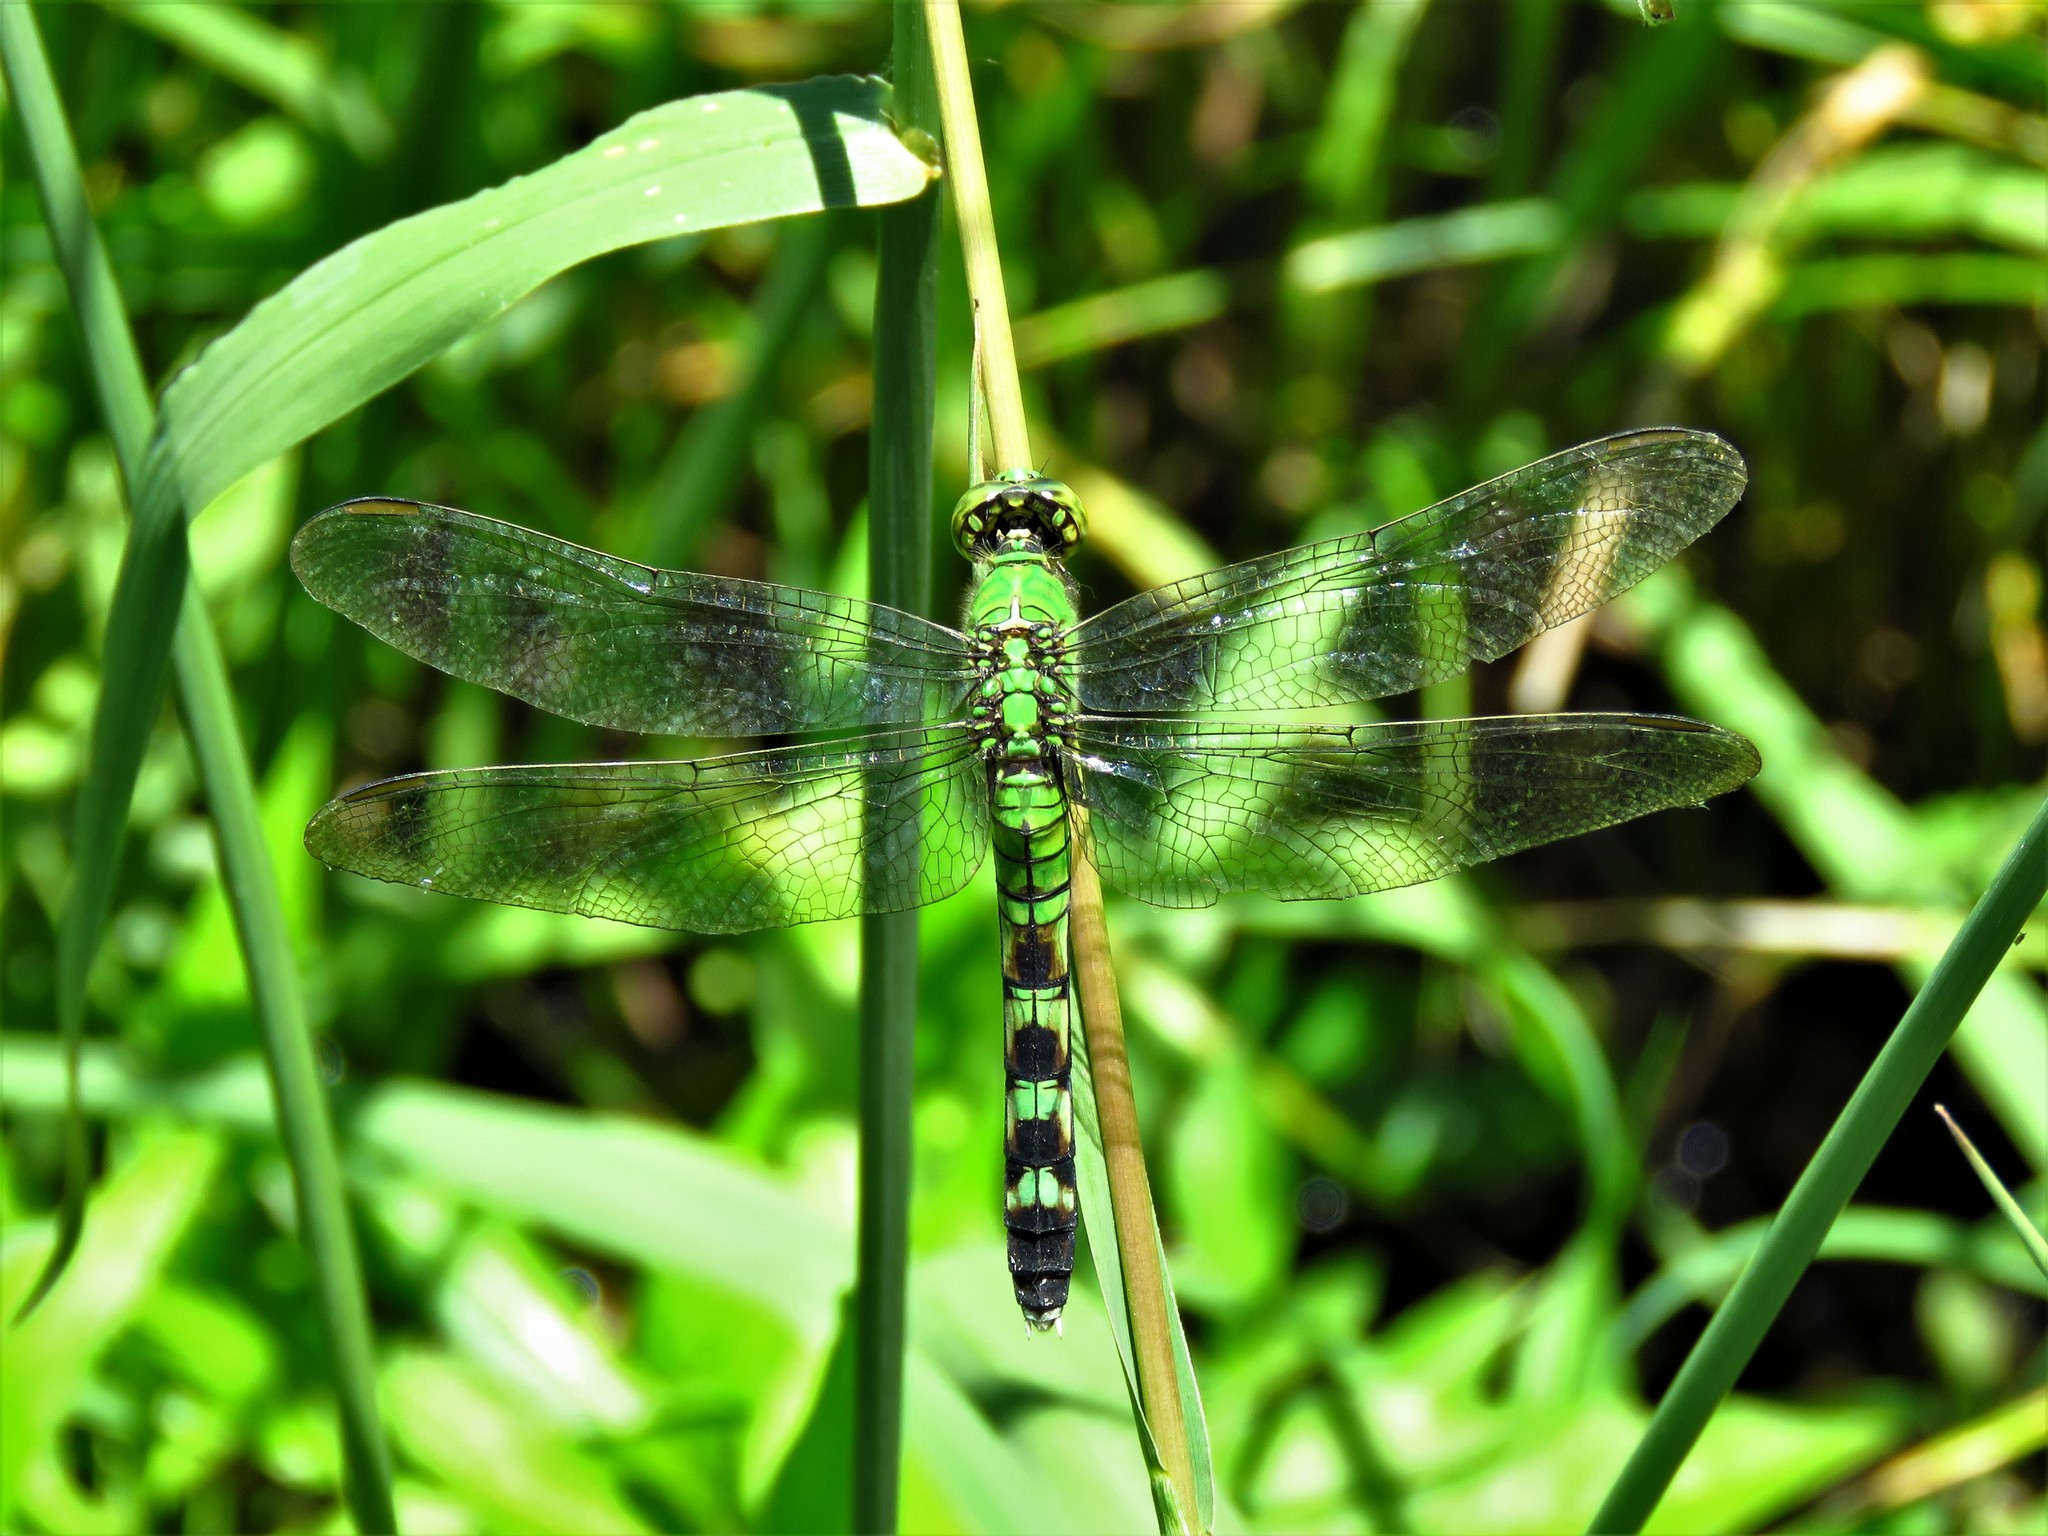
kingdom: Animalia
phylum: Arthropoda
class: Insecta
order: Odonata
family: Libellulidae
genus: Erythemis
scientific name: Erythemis simplicicollis
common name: Eastern pondhawk
